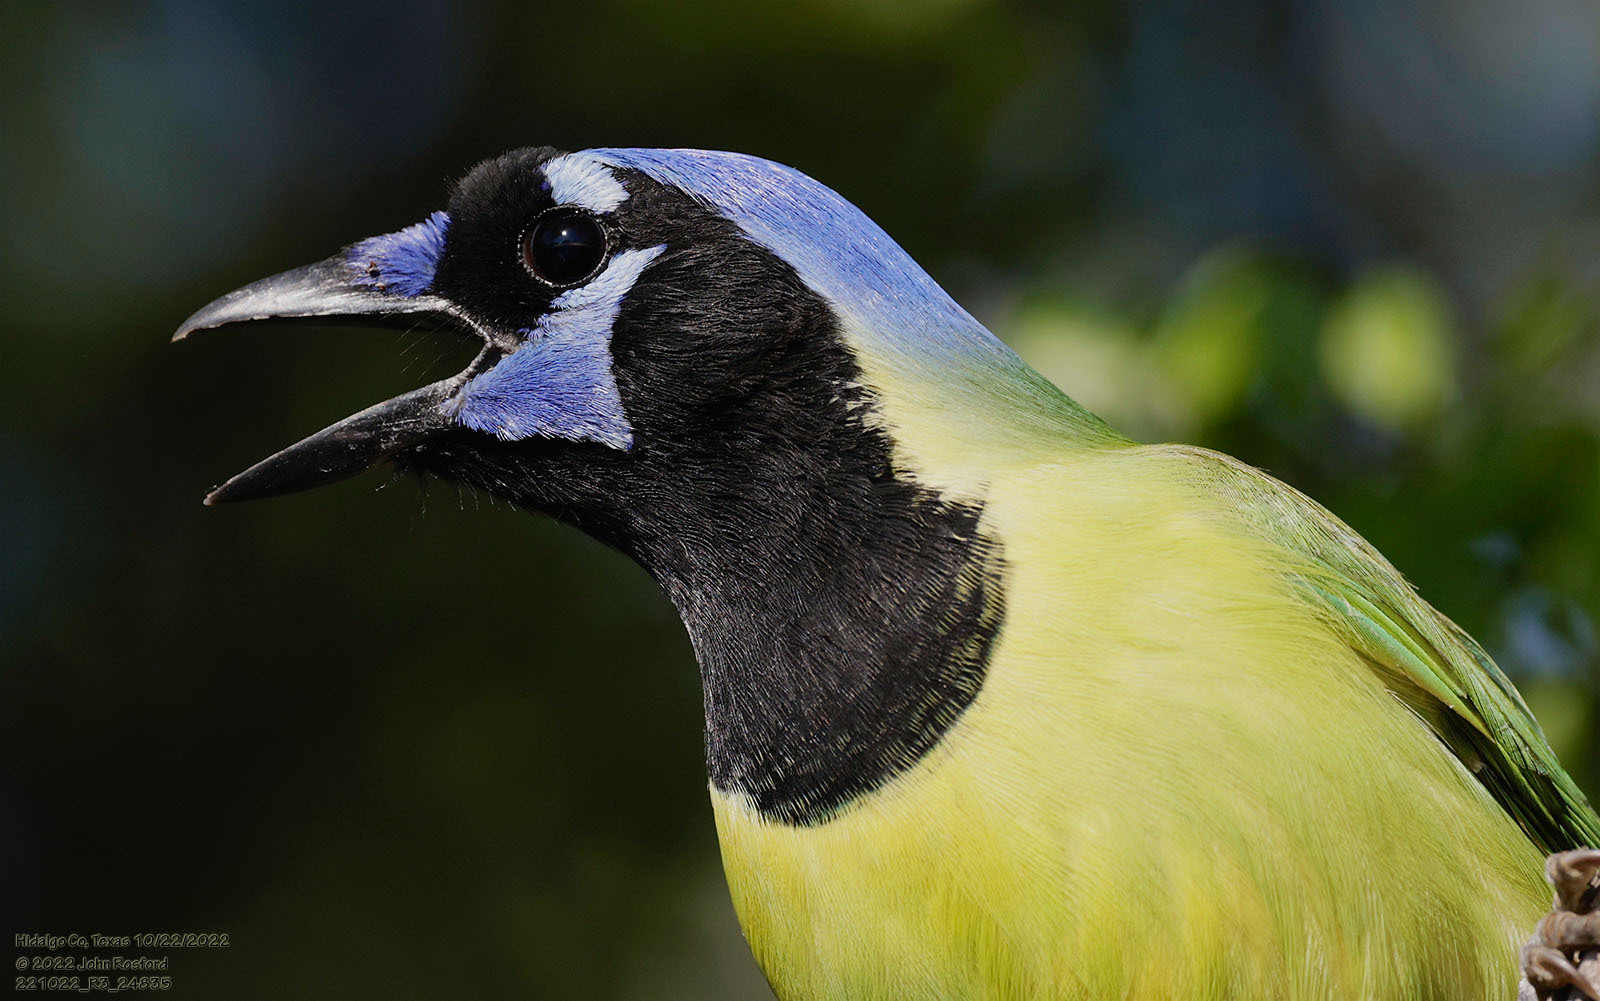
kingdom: Animalia
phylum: Chordata
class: Aves
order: Passeriformes
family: Corvidae
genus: Cyanocorax
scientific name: Cyanocorax yncas
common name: Green jay
